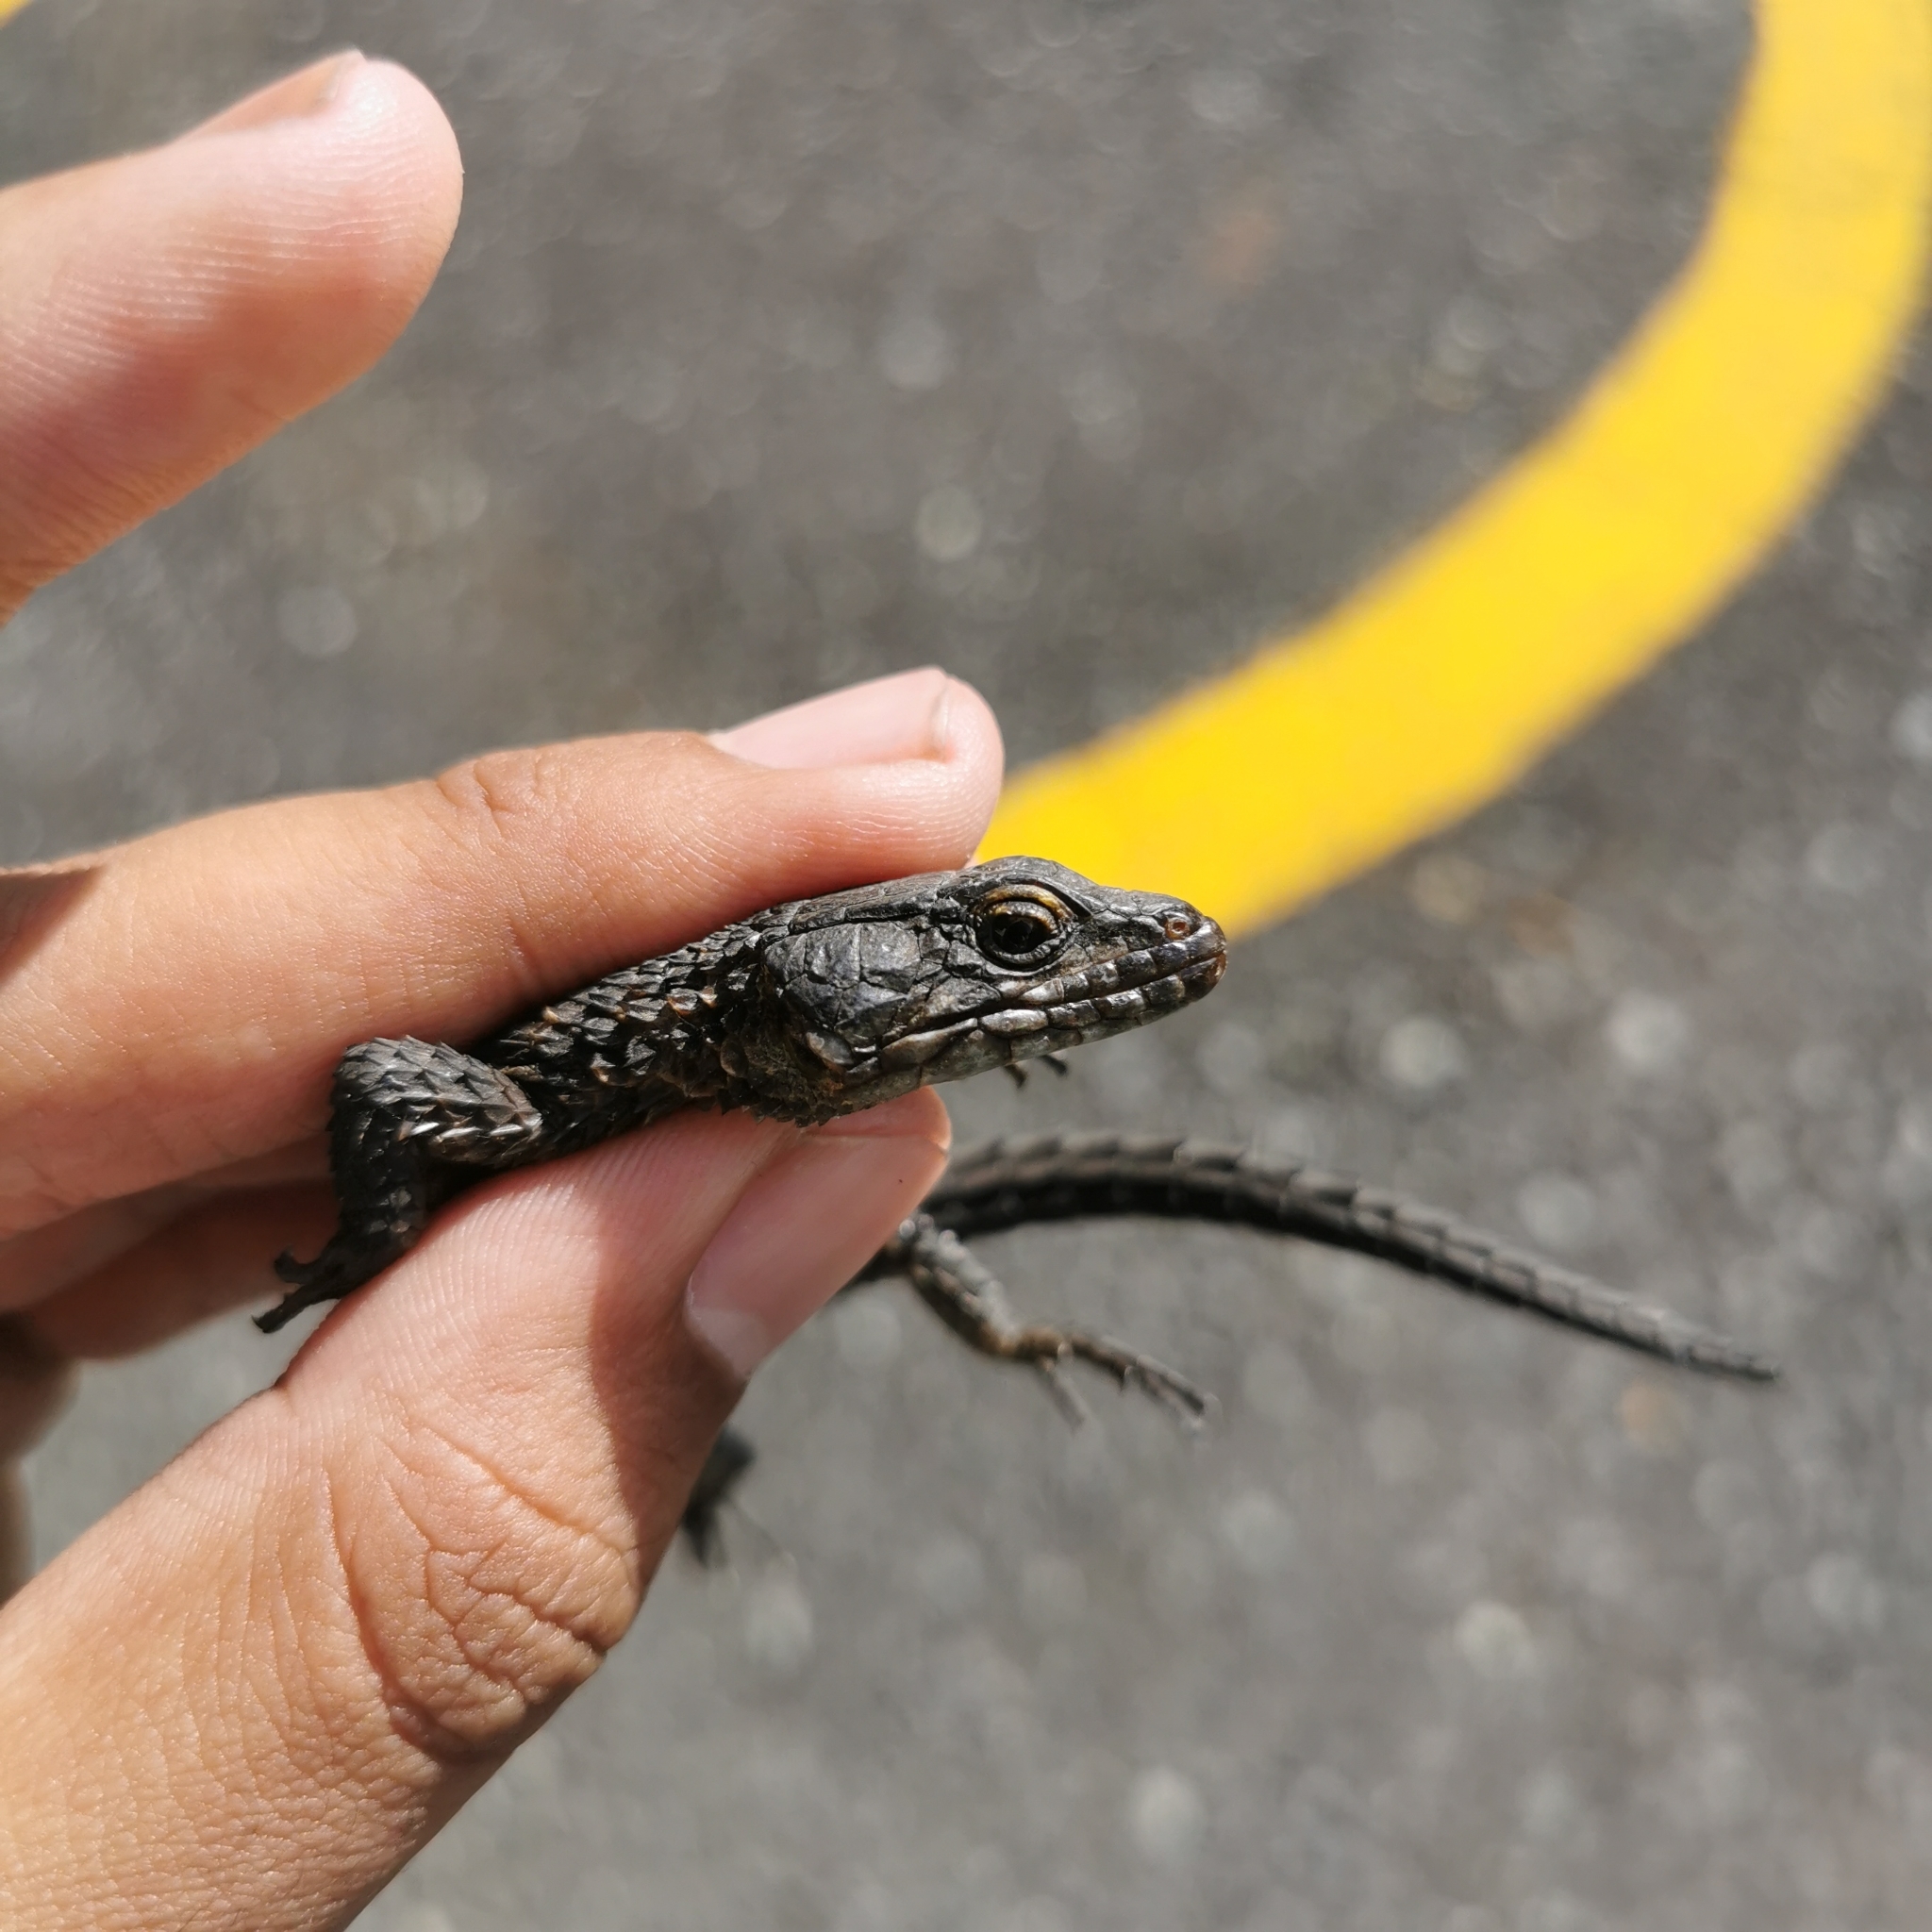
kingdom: Animalia
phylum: Chordata
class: Squamata
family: Cordylidae
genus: Cordylus
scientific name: Cordylus niger
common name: Black girdled lizard
